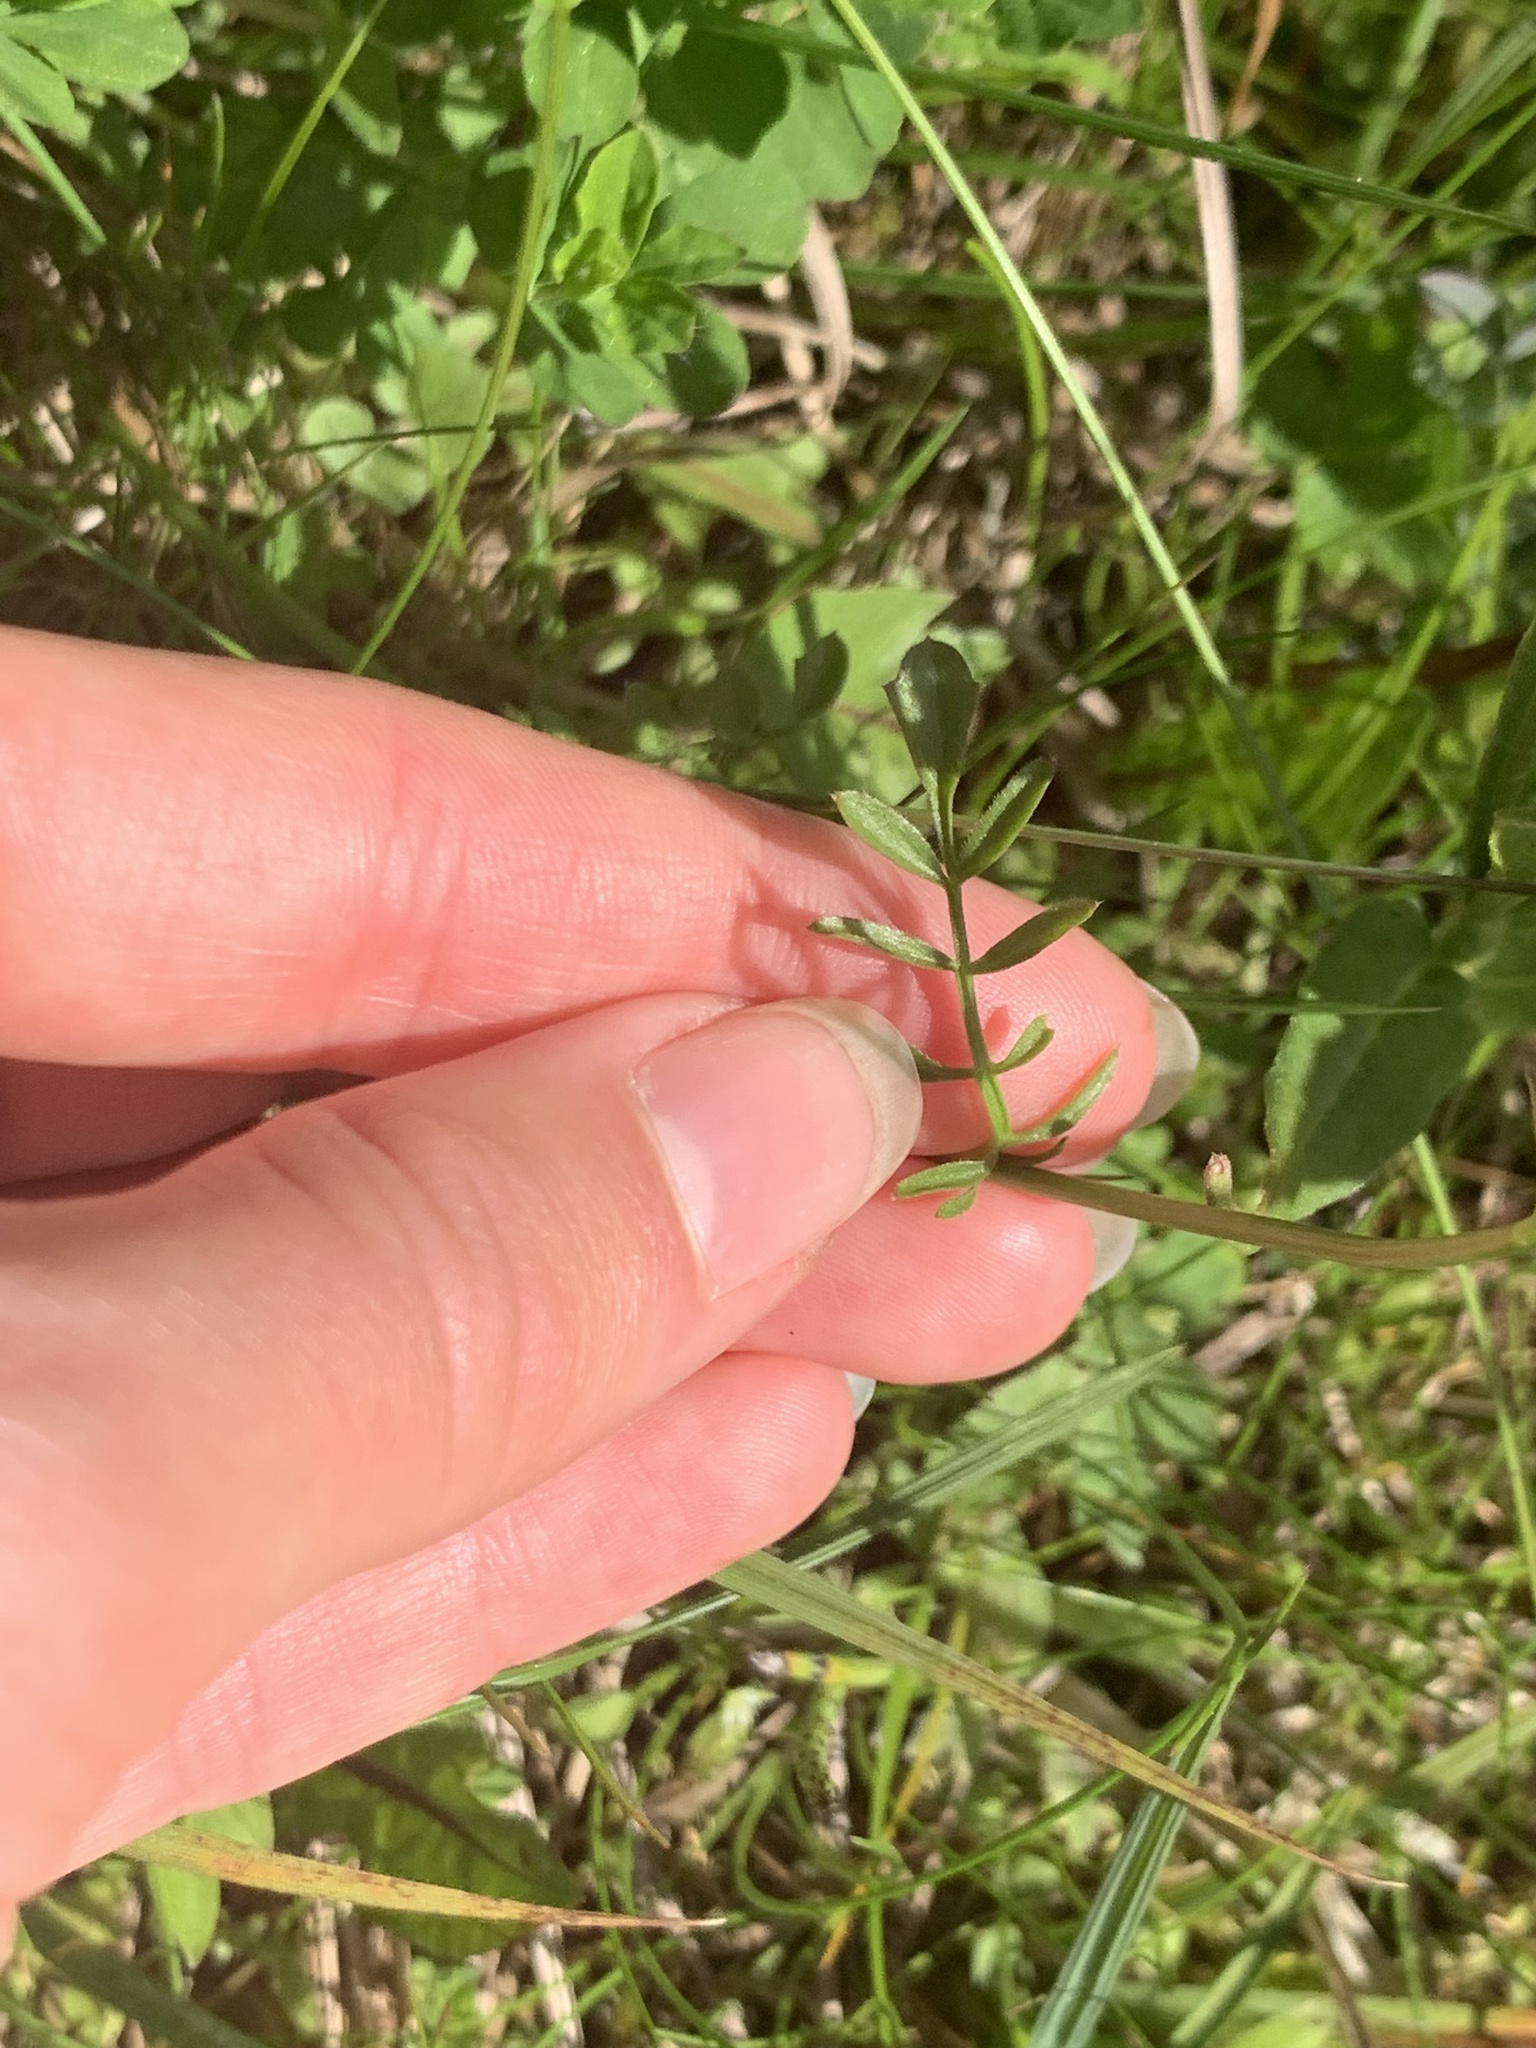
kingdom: Plantae
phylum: Tracheophyta
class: Magnoliopsida
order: Brassicales
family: Brassicaceae
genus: Cardamine
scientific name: Cardamine pratensis
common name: Cuckoo flower
